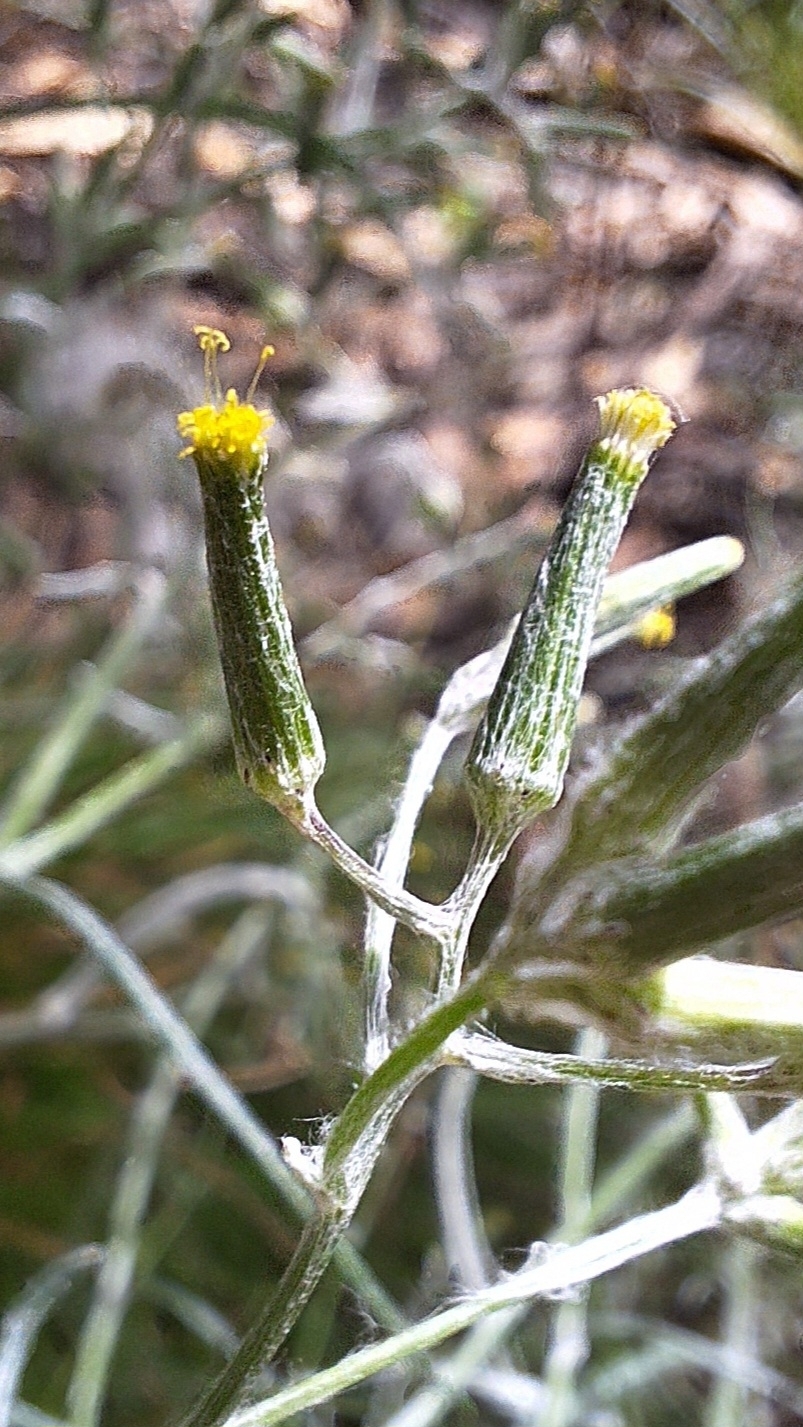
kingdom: Plantae
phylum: Tracheophyta
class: Magnoliopsida
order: Asterales
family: Asteraceae
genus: Senecio
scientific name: Senecio quadridentatus
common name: Cotton fireweed
